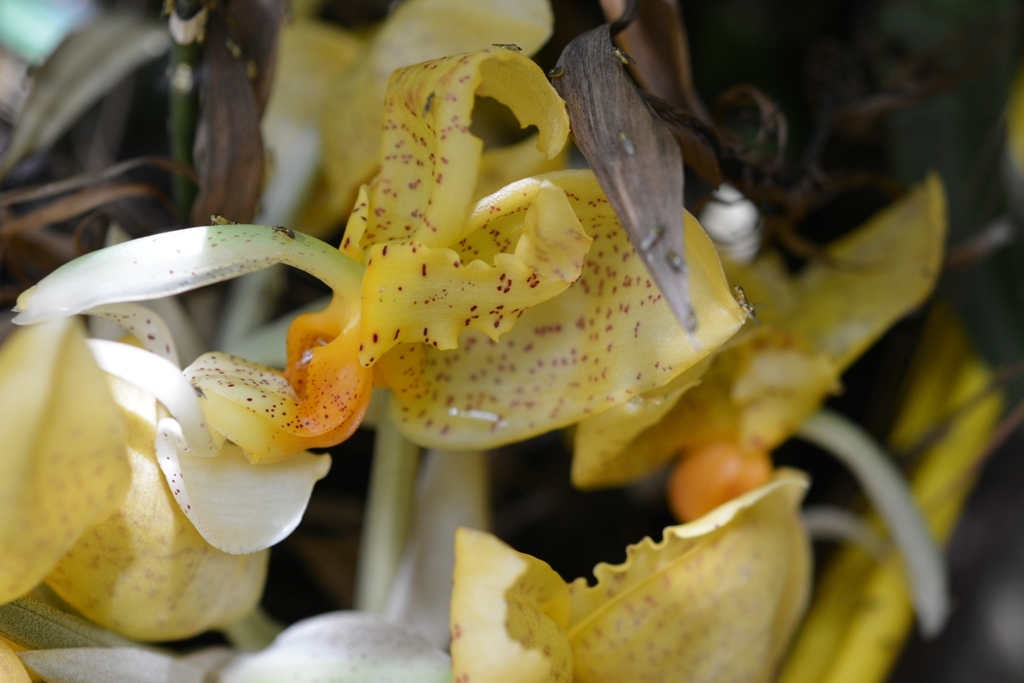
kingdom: Plantae
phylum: Tracheophyta
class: Liliopsida
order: Asparagales
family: Orchidaceae
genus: Stanhopea
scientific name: Stanhopea graveolens
